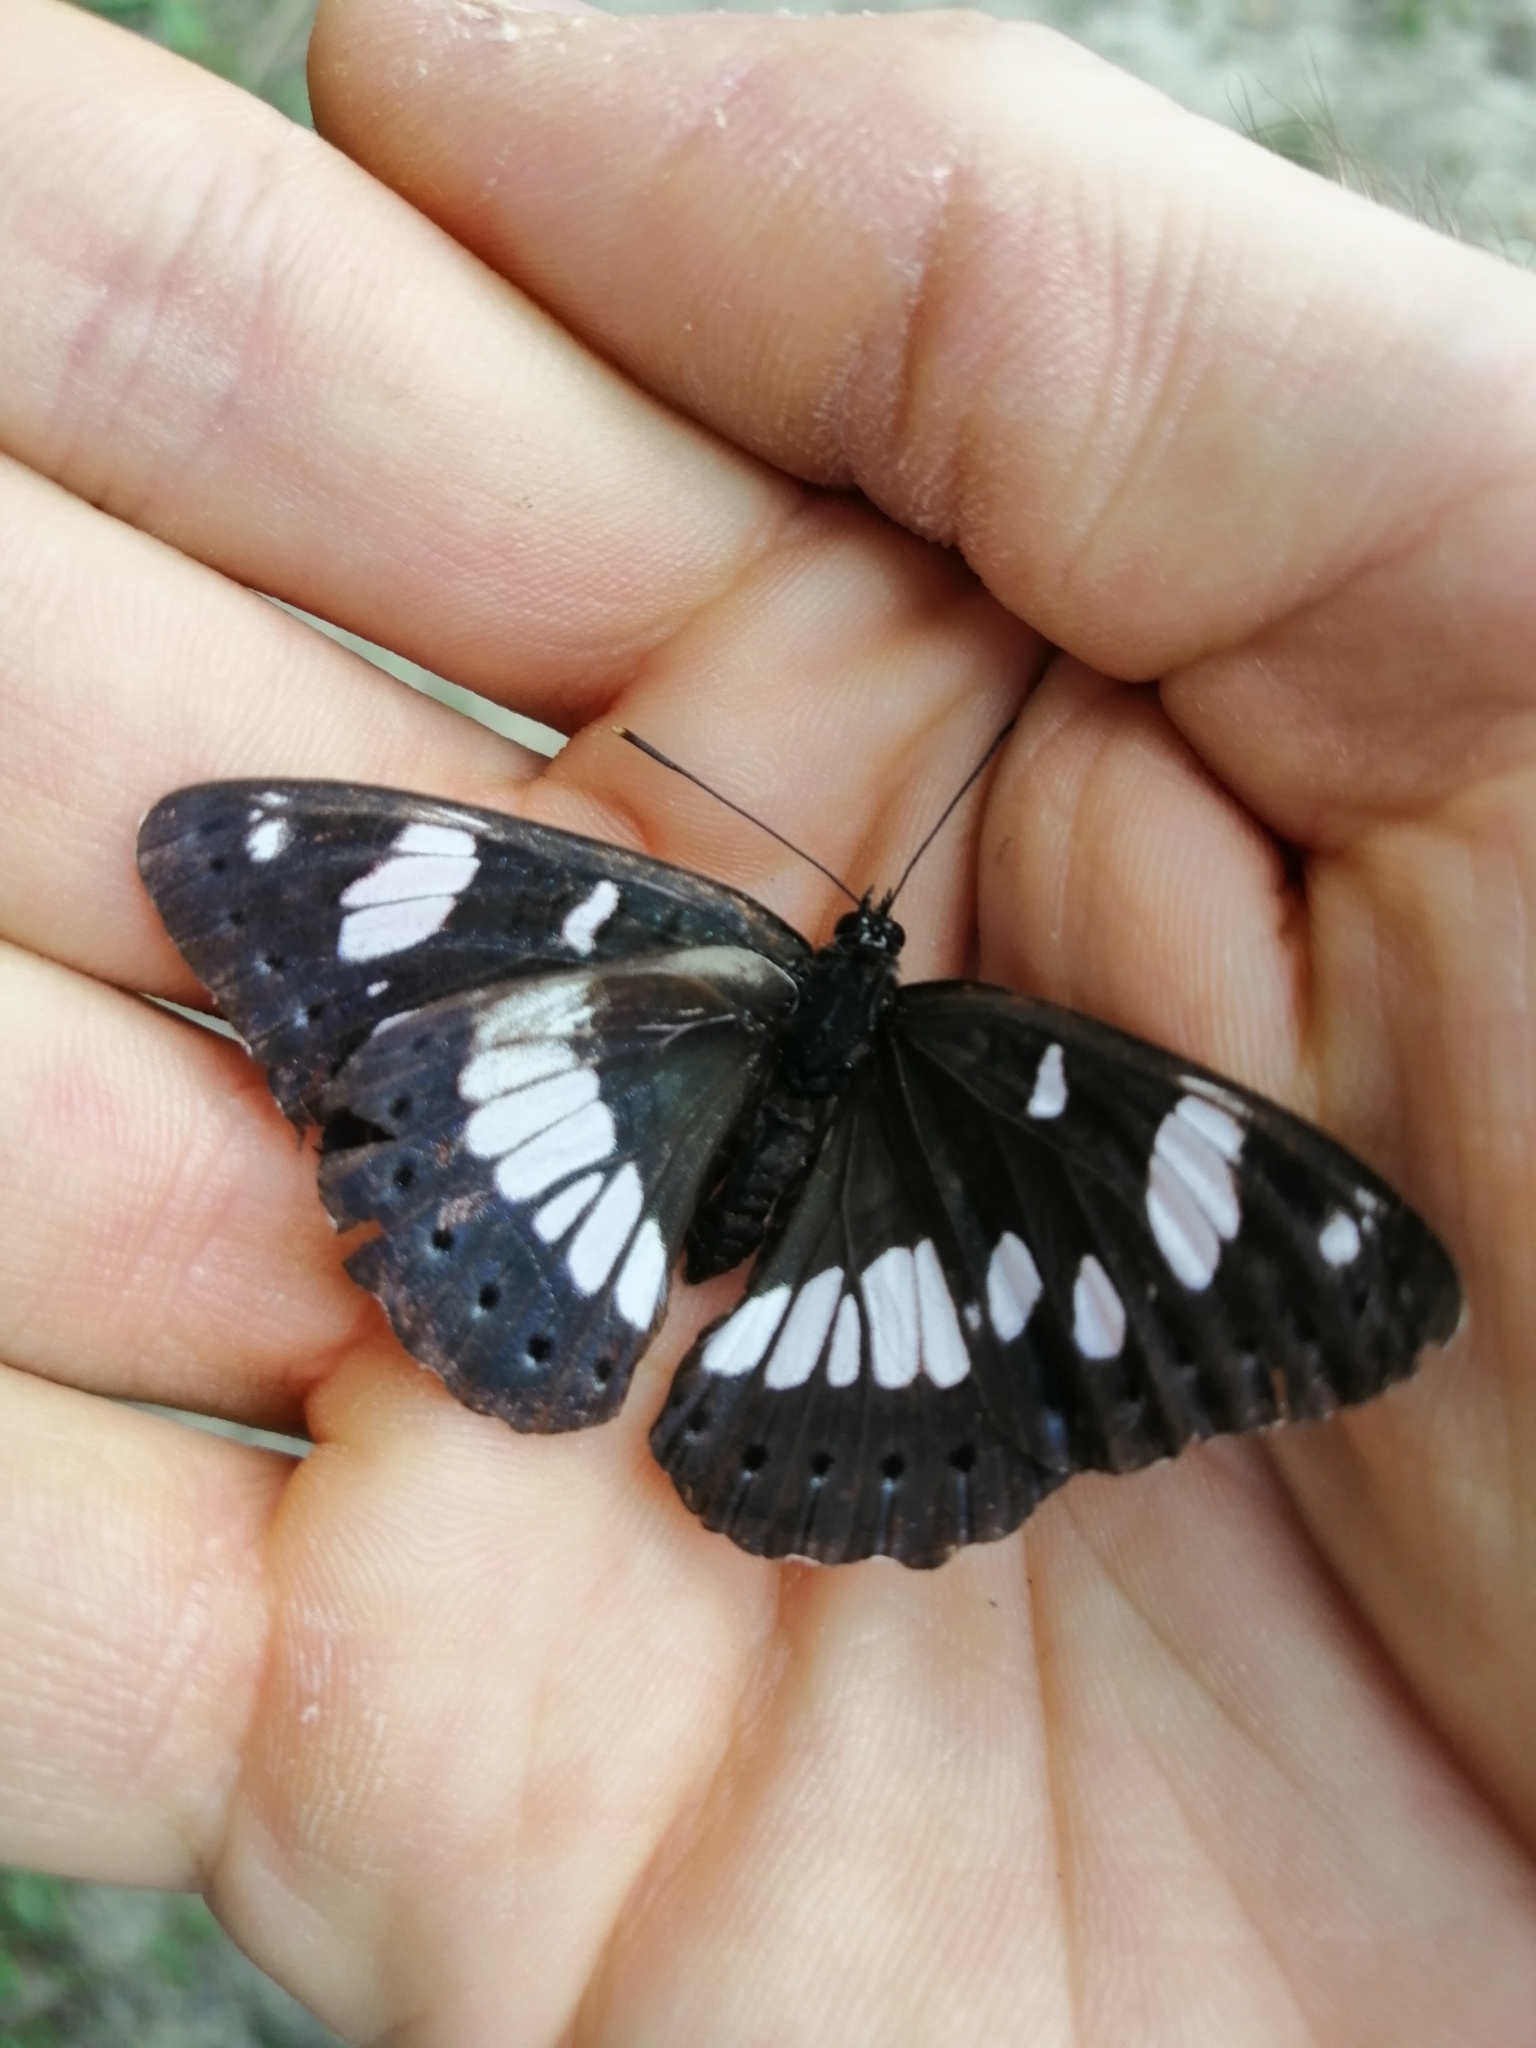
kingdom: Animalia
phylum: Arthropoda
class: Insecta
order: Lepidoptera
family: Nymphalidae
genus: Limenitis
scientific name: Limenitis reducta
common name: Southern white admiral
